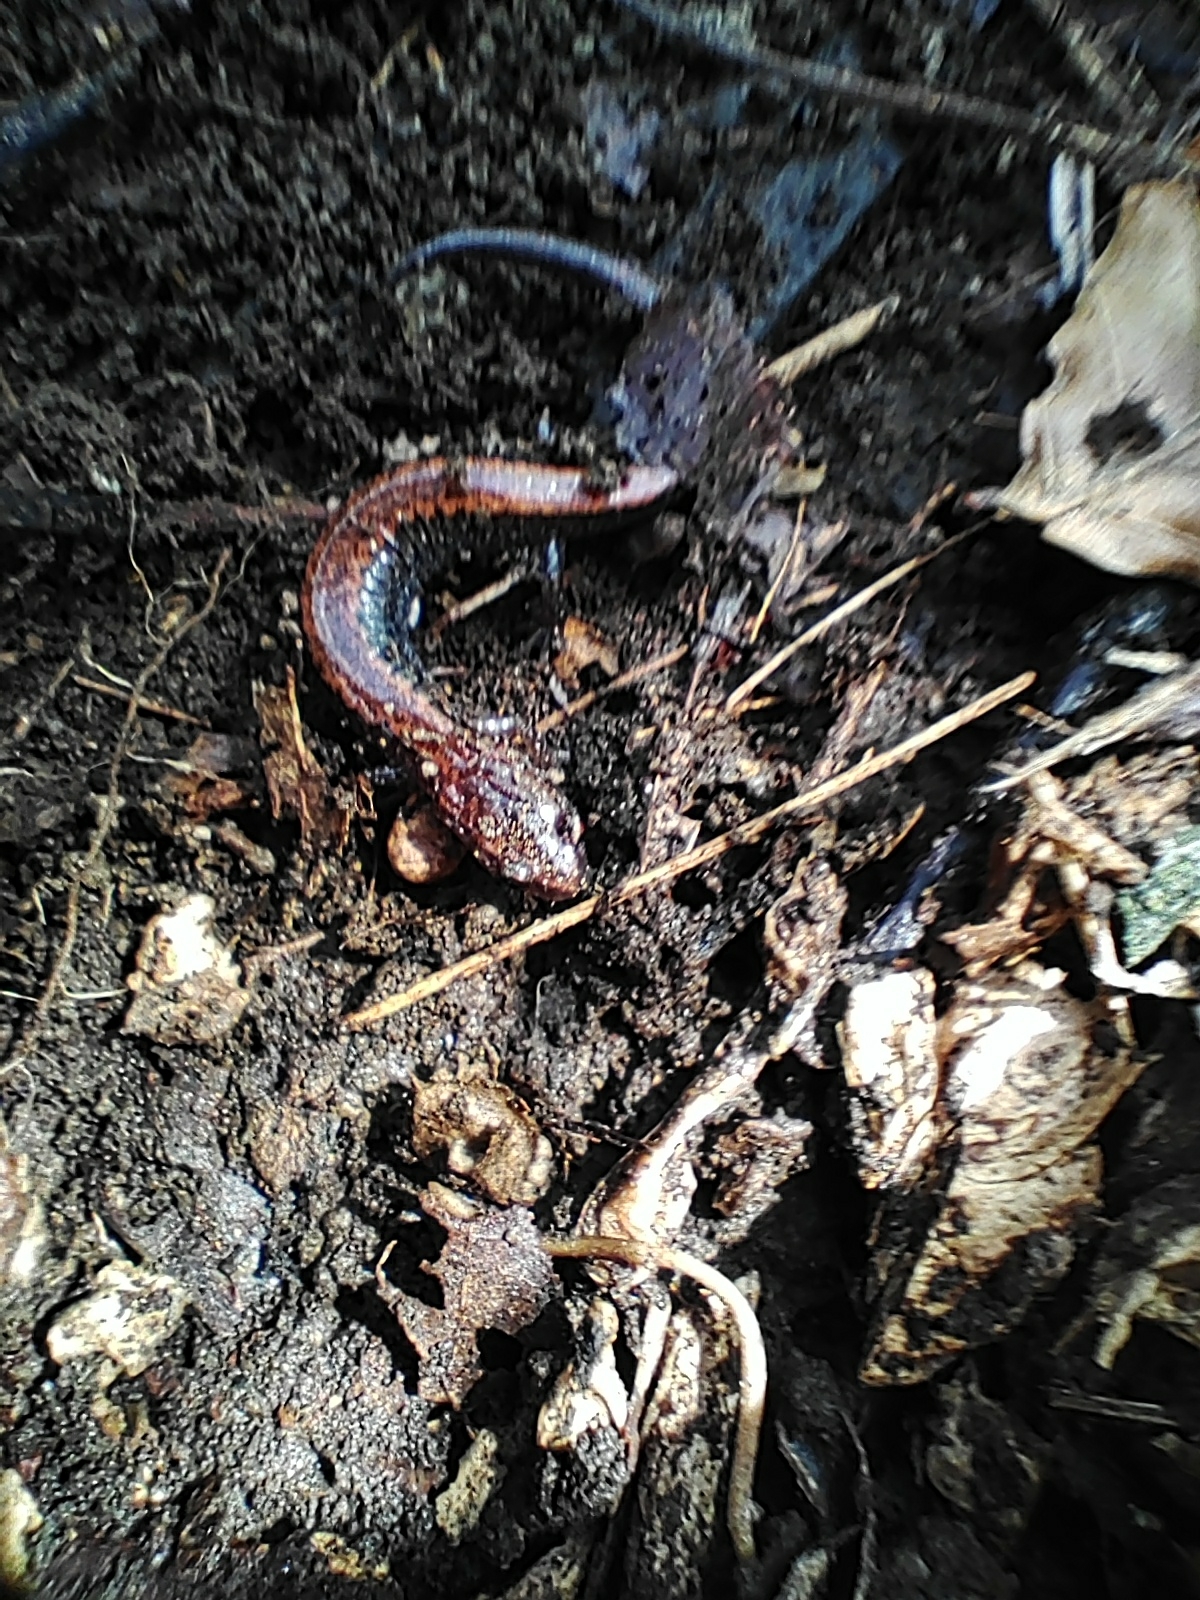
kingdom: Animalia
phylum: Chordata
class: Amphibia
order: Caudata
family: Plethodontidae
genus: Plethodon
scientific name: Plethodon cinereus
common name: Redback salamander
